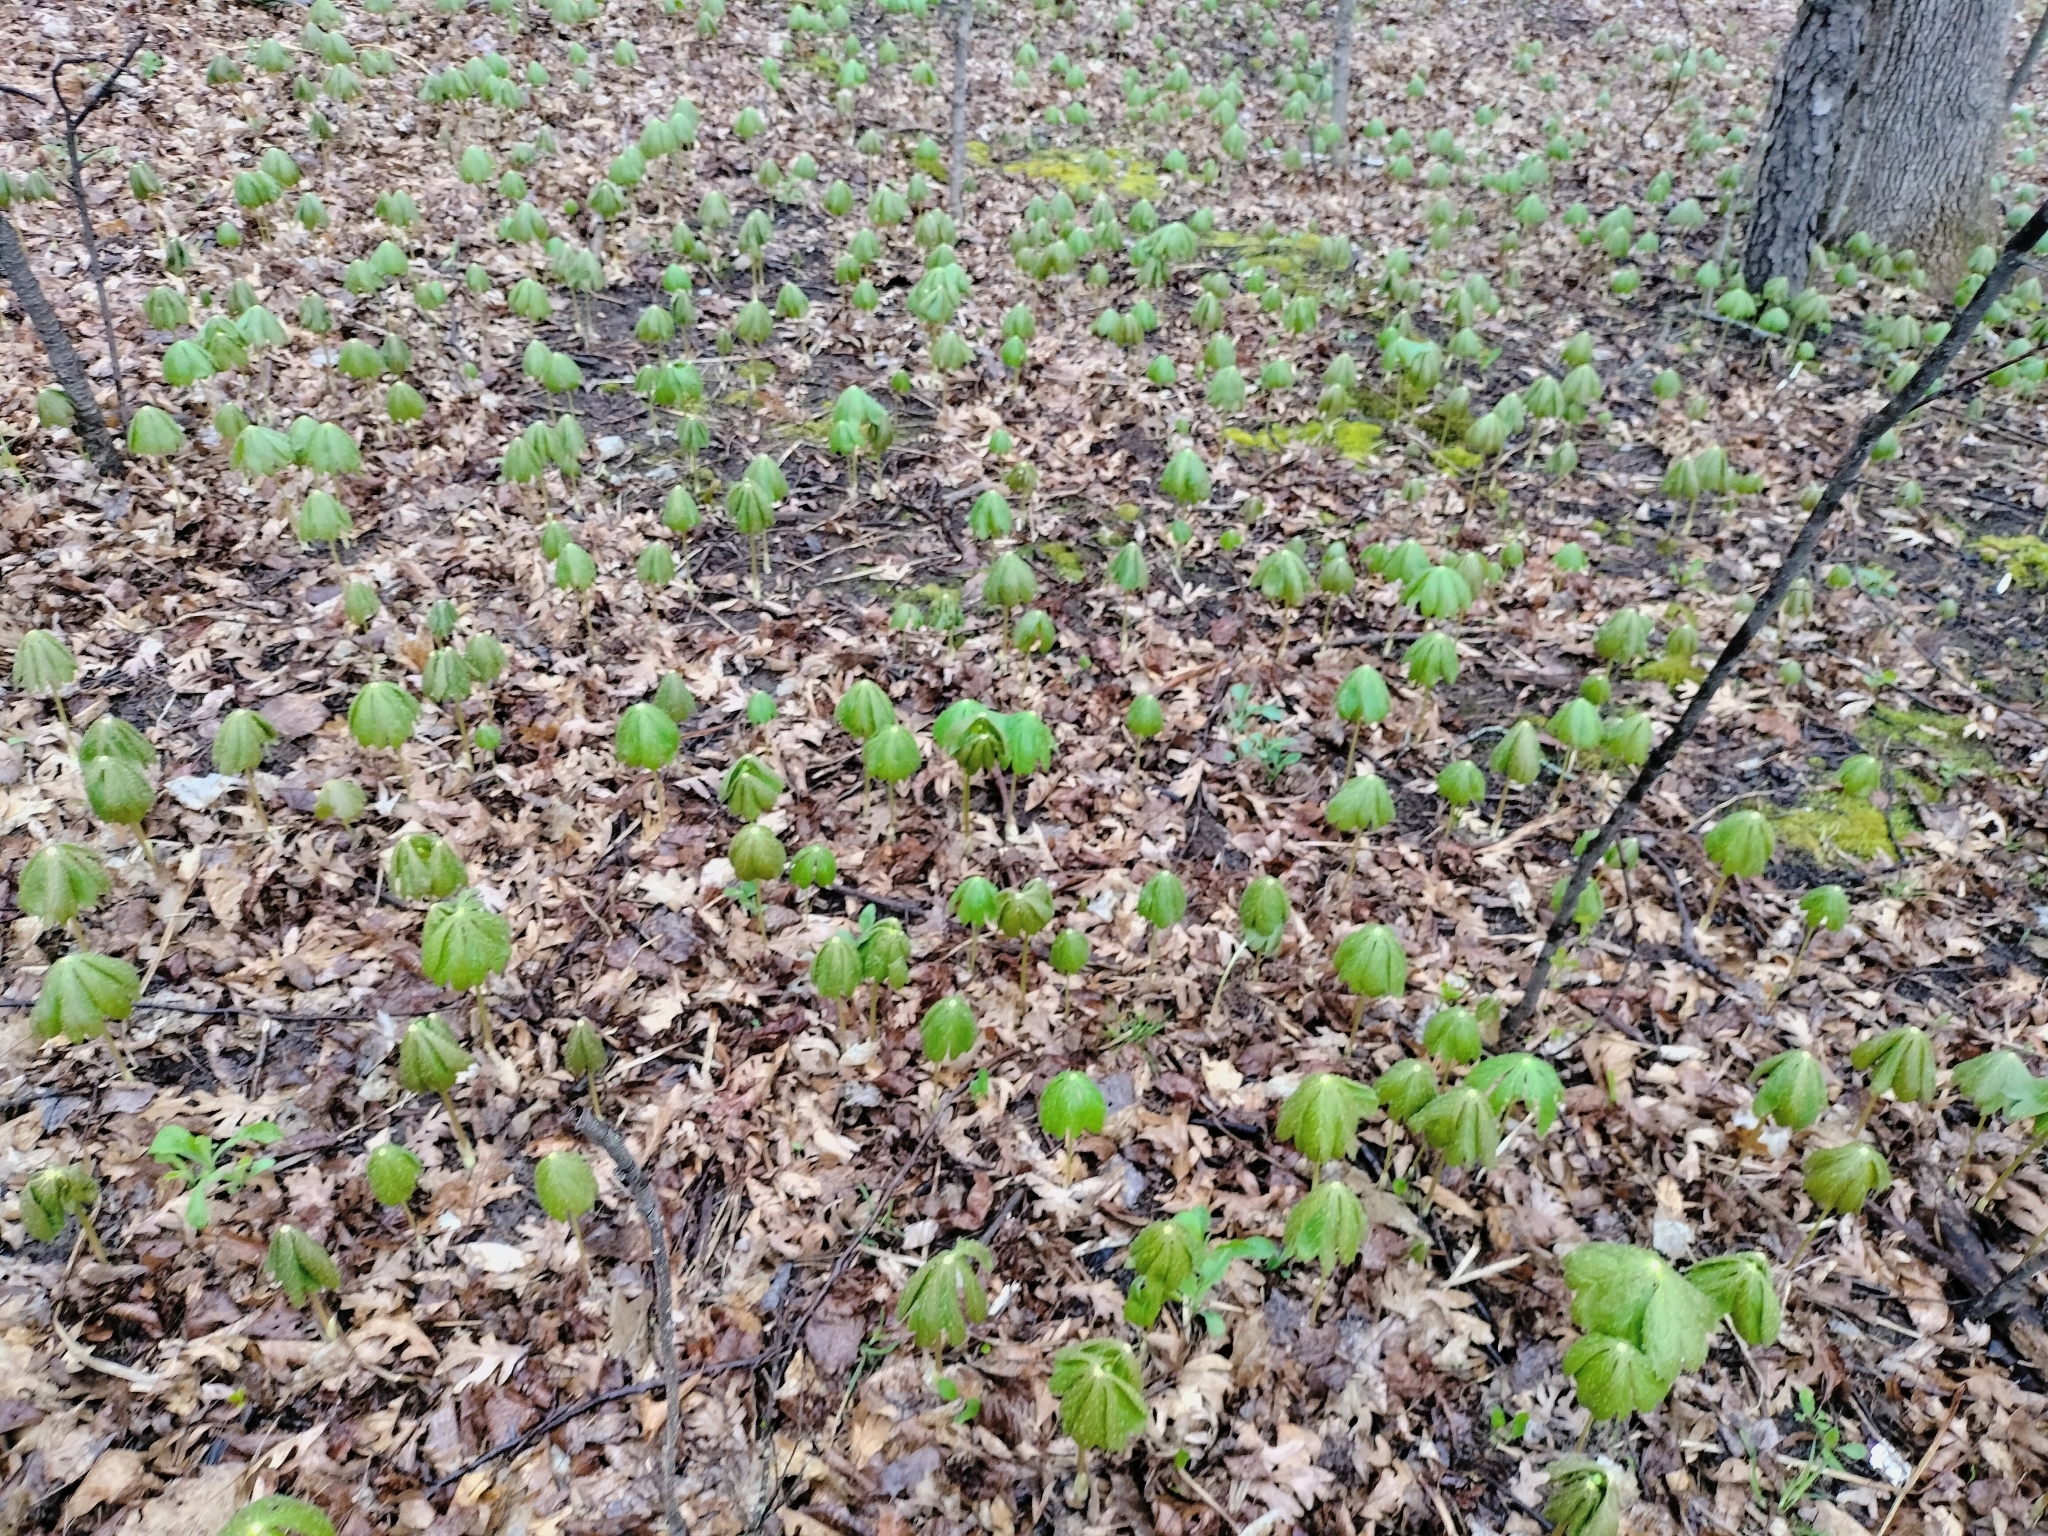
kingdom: Plantae
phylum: Tracheophyta
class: Magnoliopsida
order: Ranunculales
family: Berberidaceae
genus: Podophyllum
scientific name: Podophyllum peltatum
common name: Wild mandrake
